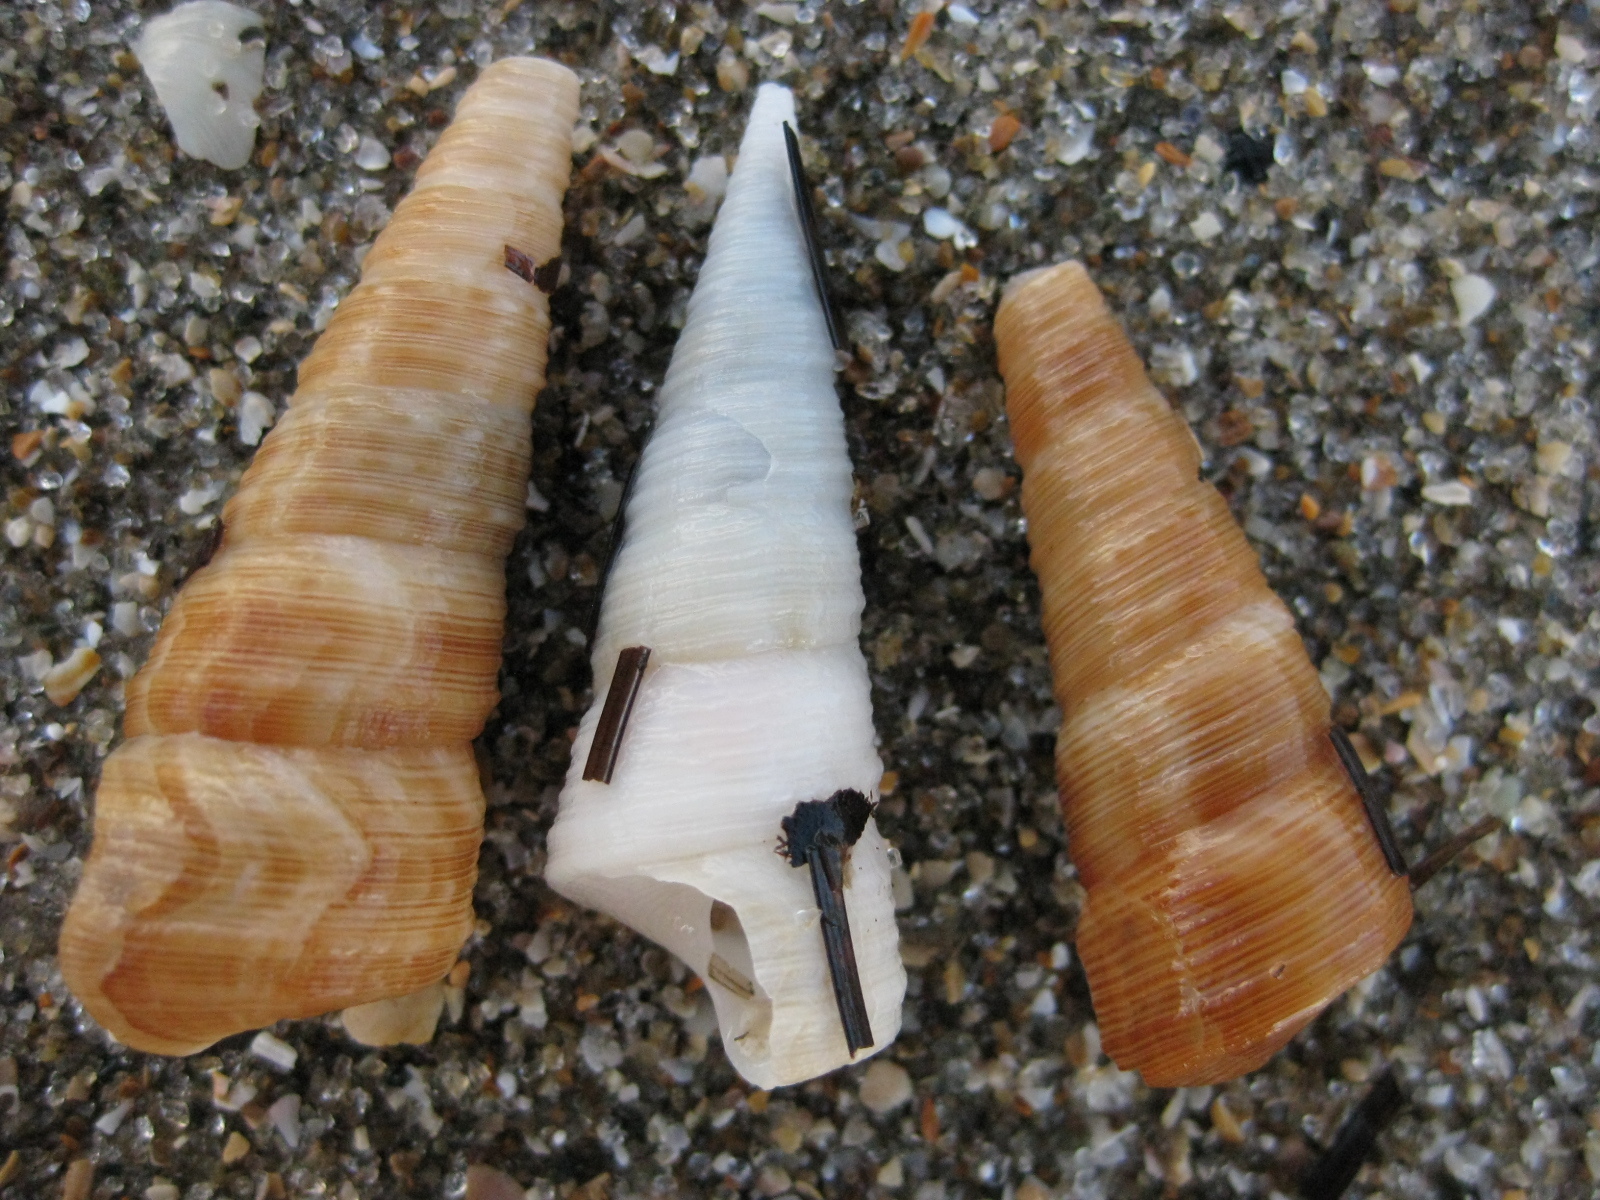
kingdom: Animalia
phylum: Mollusca
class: Gastropoda
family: Turritellidae
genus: Maoricolpus
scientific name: Maoricolpus roseus
